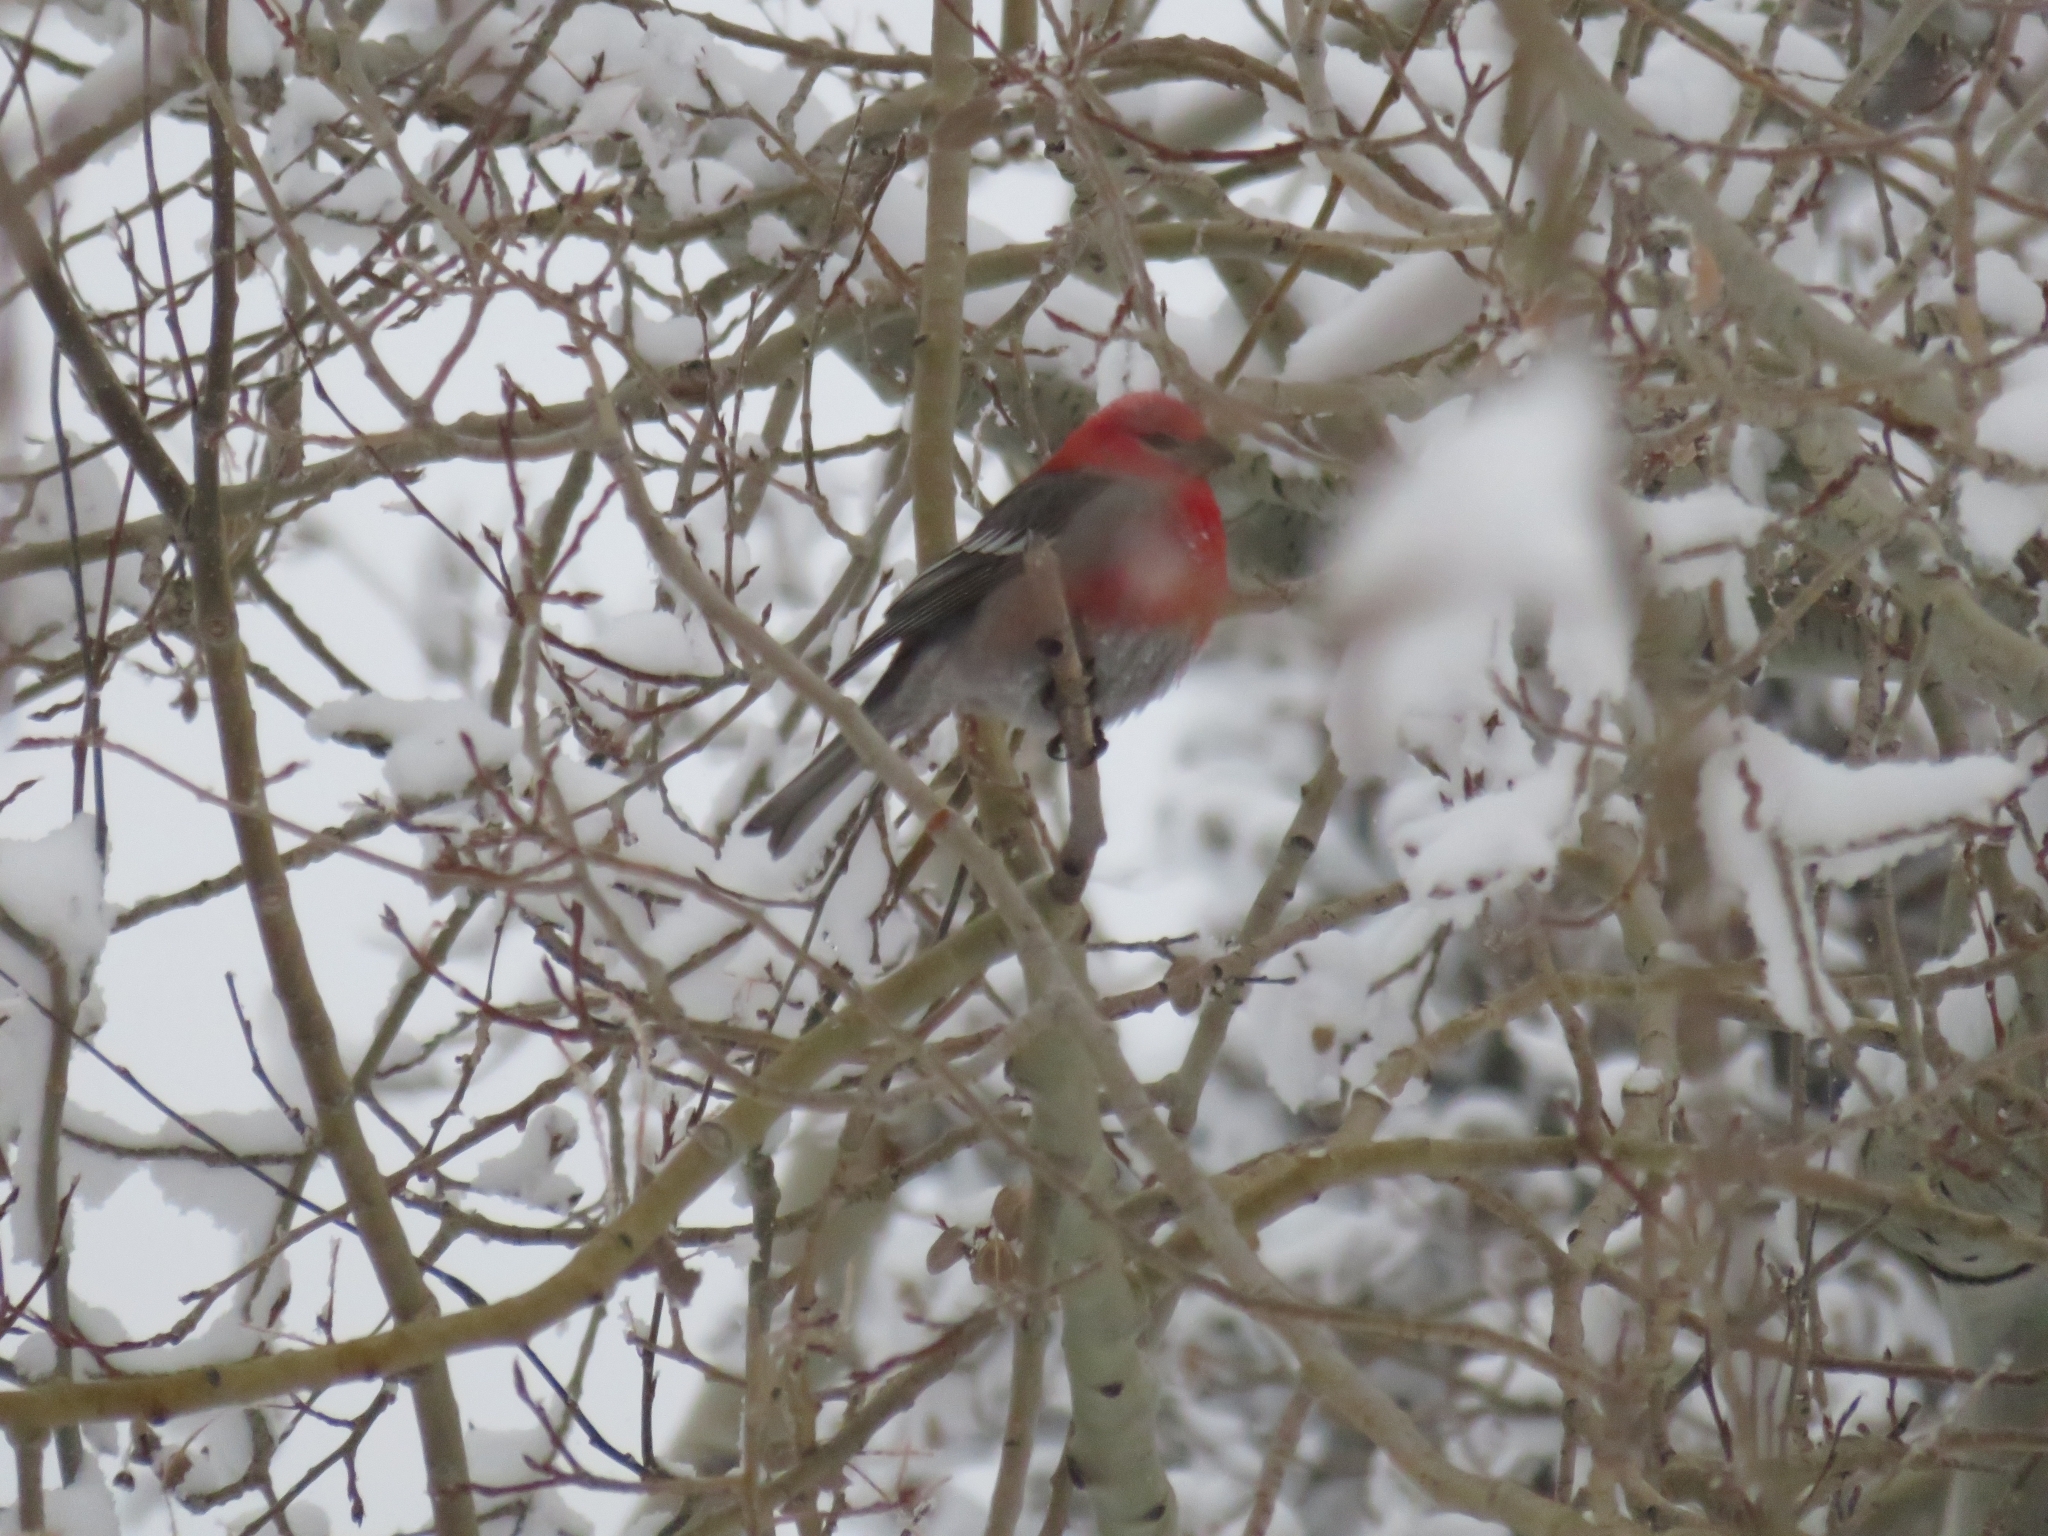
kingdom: Animalia
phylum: Chordata
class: Aves
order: Passeriformes
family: Fringillidae
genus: Pinicola
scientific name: Pinicola enucleator
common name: Pine grosbeak
